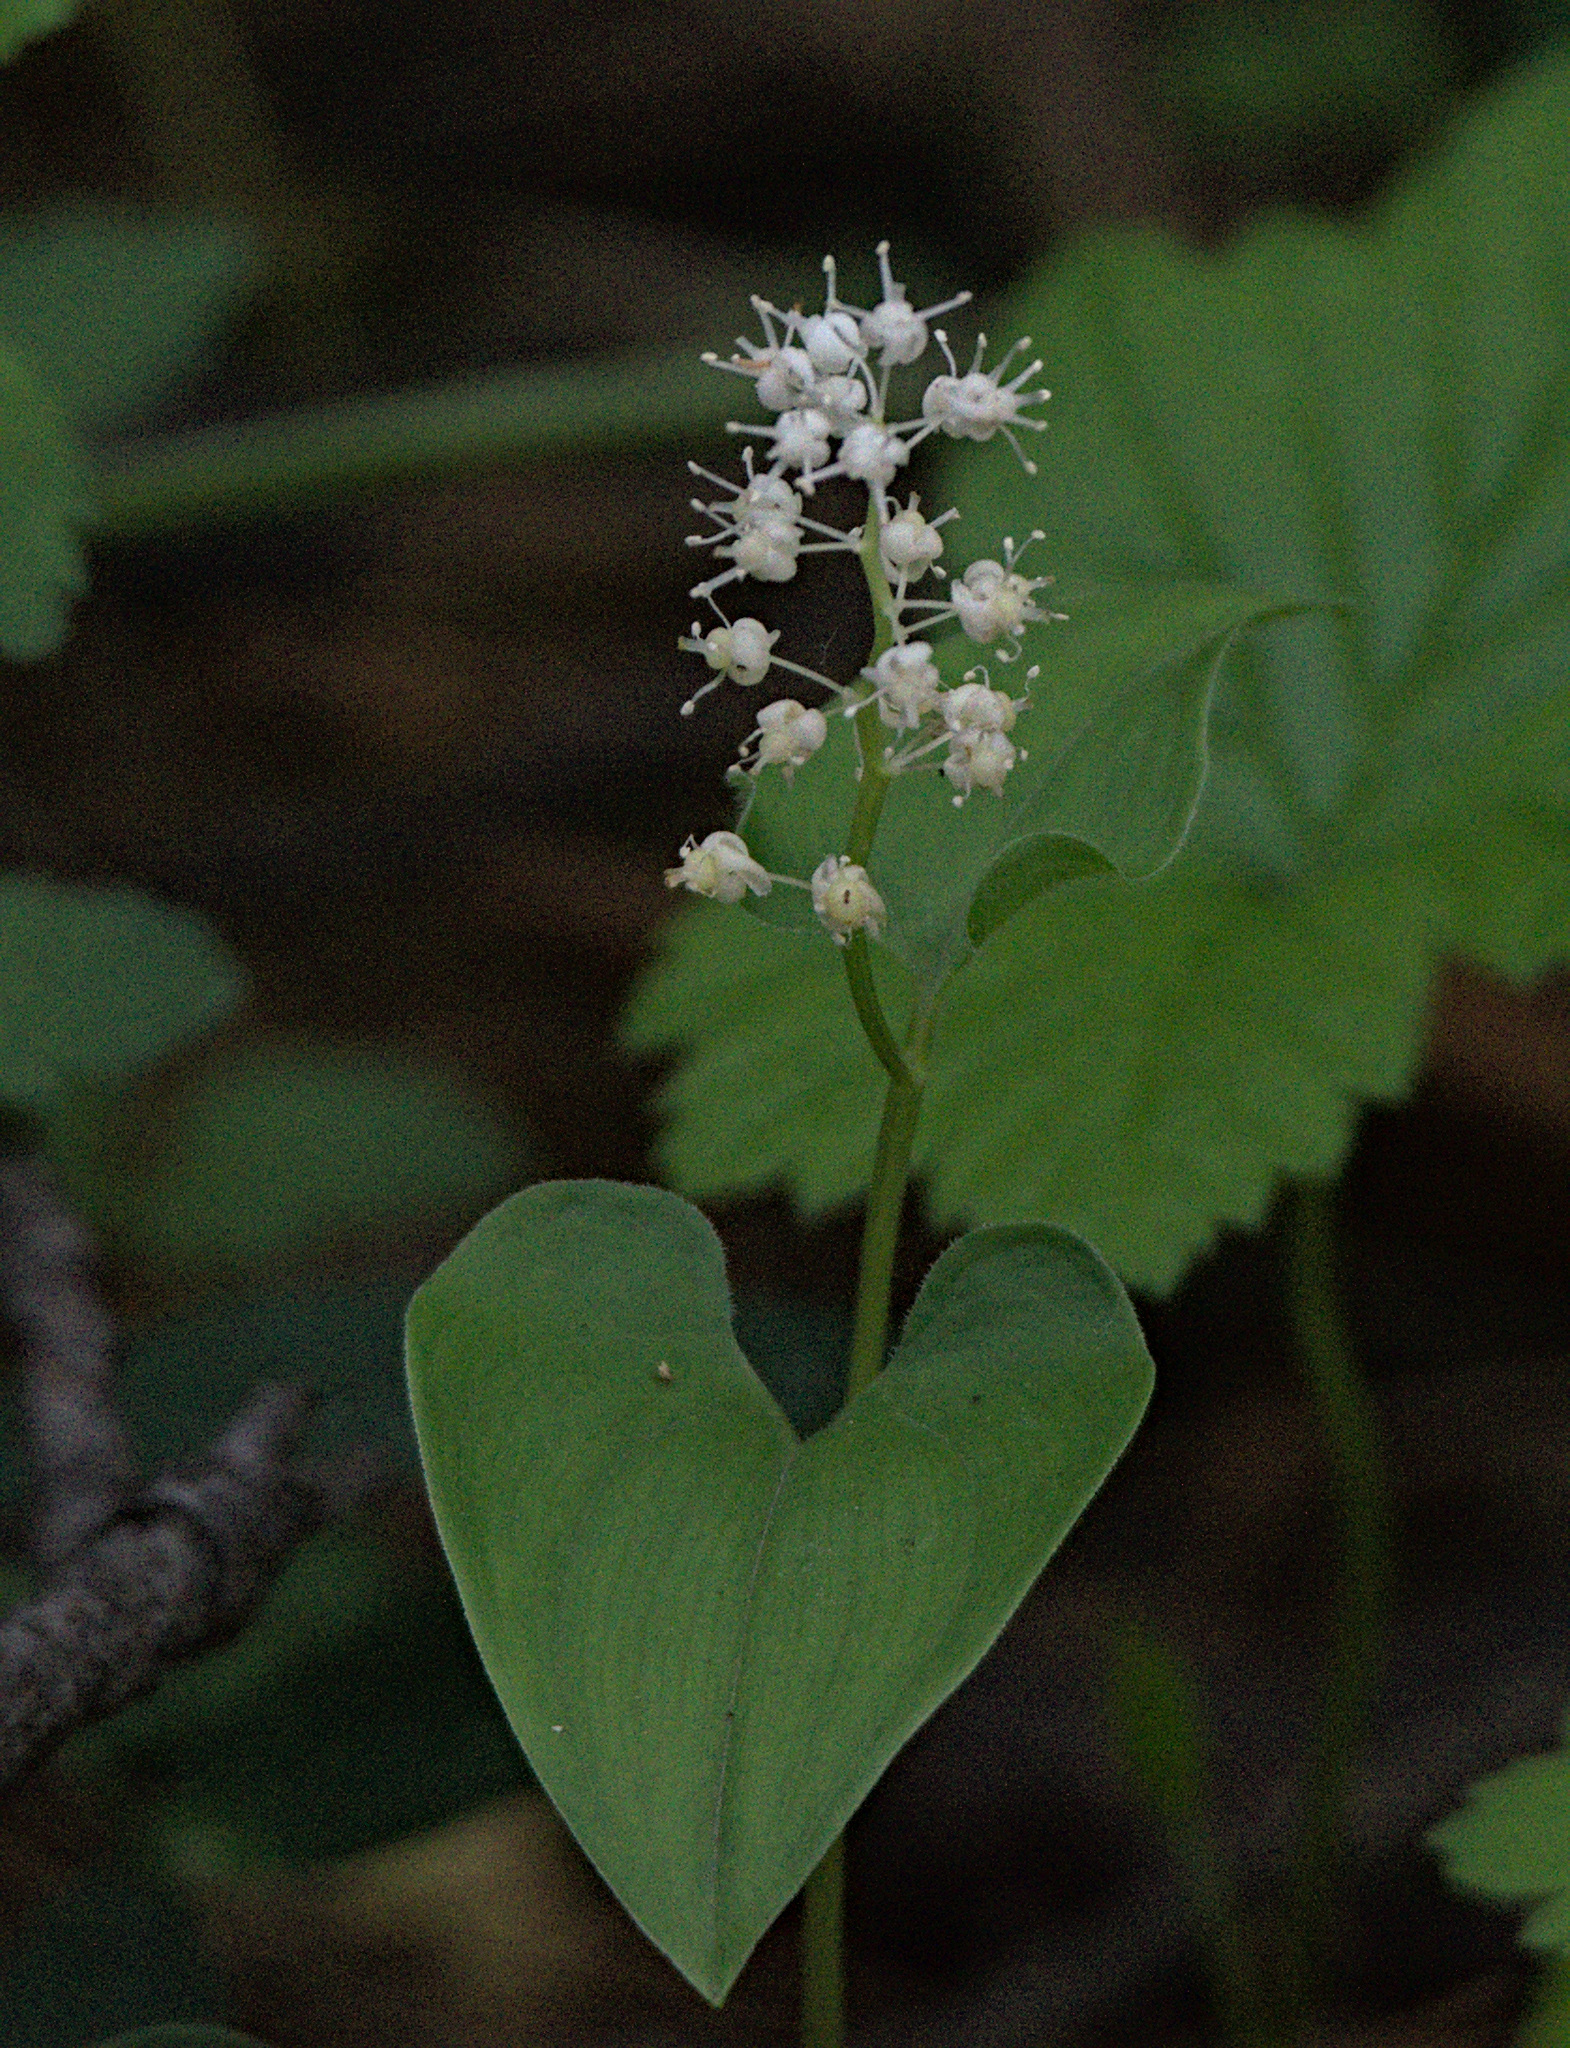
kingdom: Plantae
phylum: Tracheophyta
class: Liliopsida
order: Asparagales
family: Asparagaceae
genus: Maianthemum
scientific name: Maianthemum bifolium
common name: May lily
